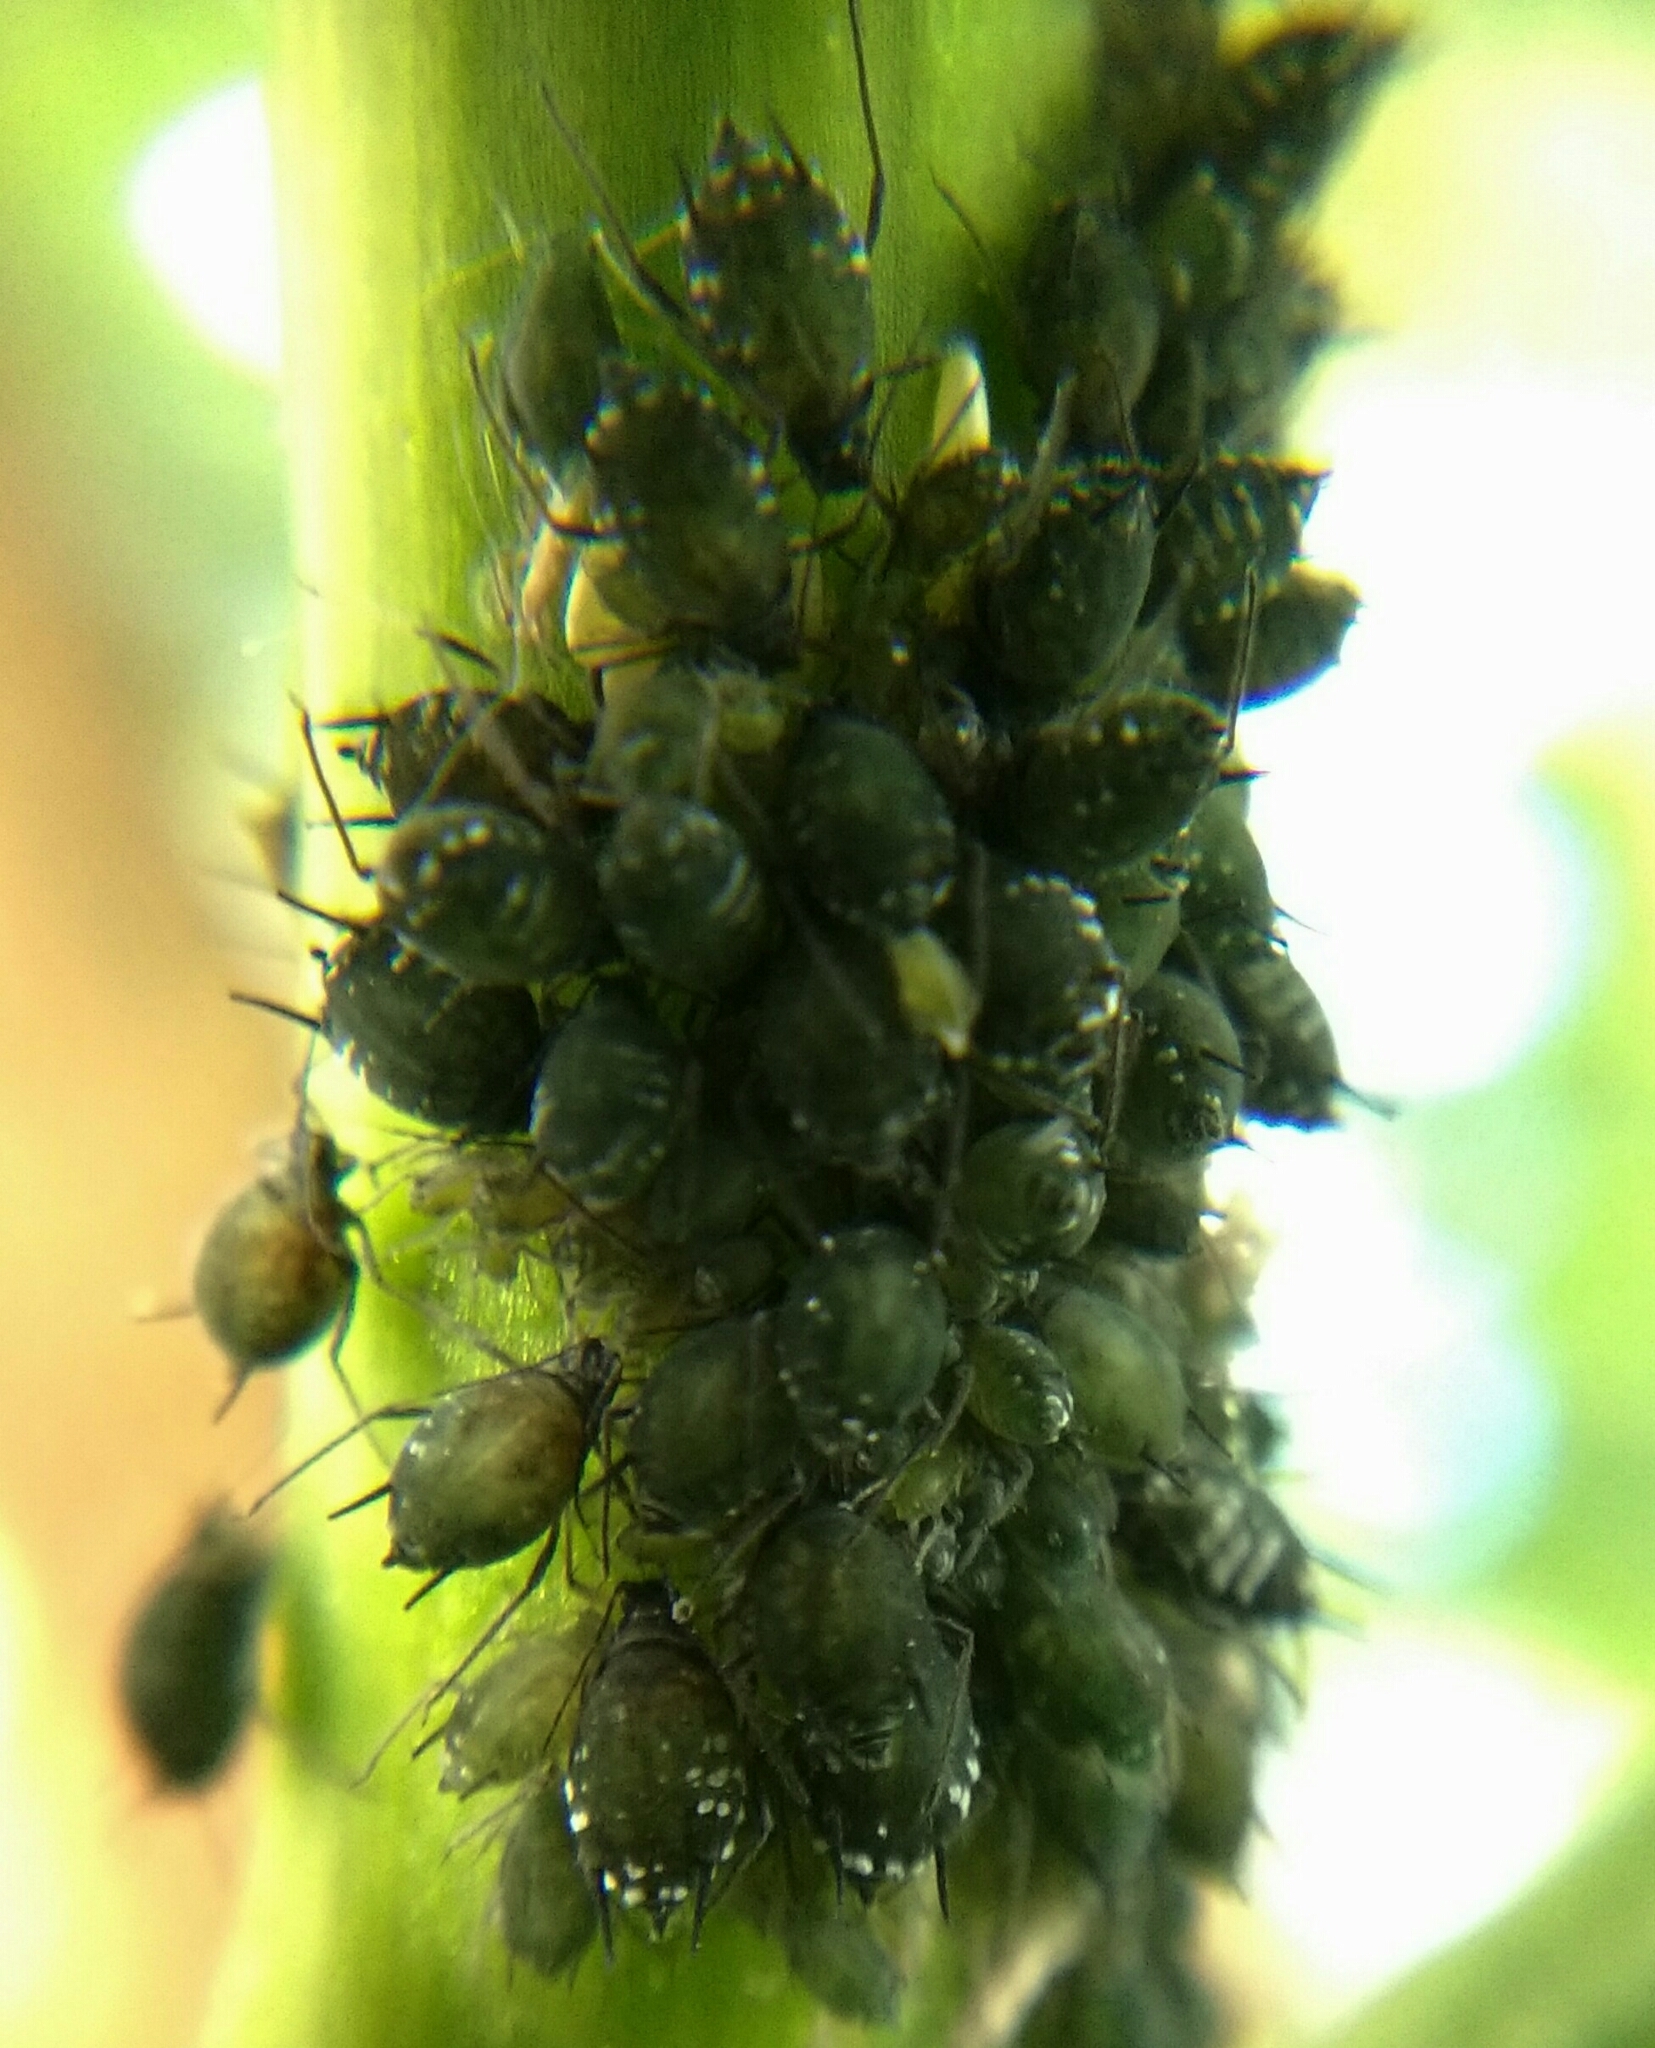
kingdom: Animalia
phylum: Arthropoda
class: Insecta
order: Hemiptera
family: Aphididae
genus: Aphis
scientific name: Aphis sambuci
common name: Elder aphid
